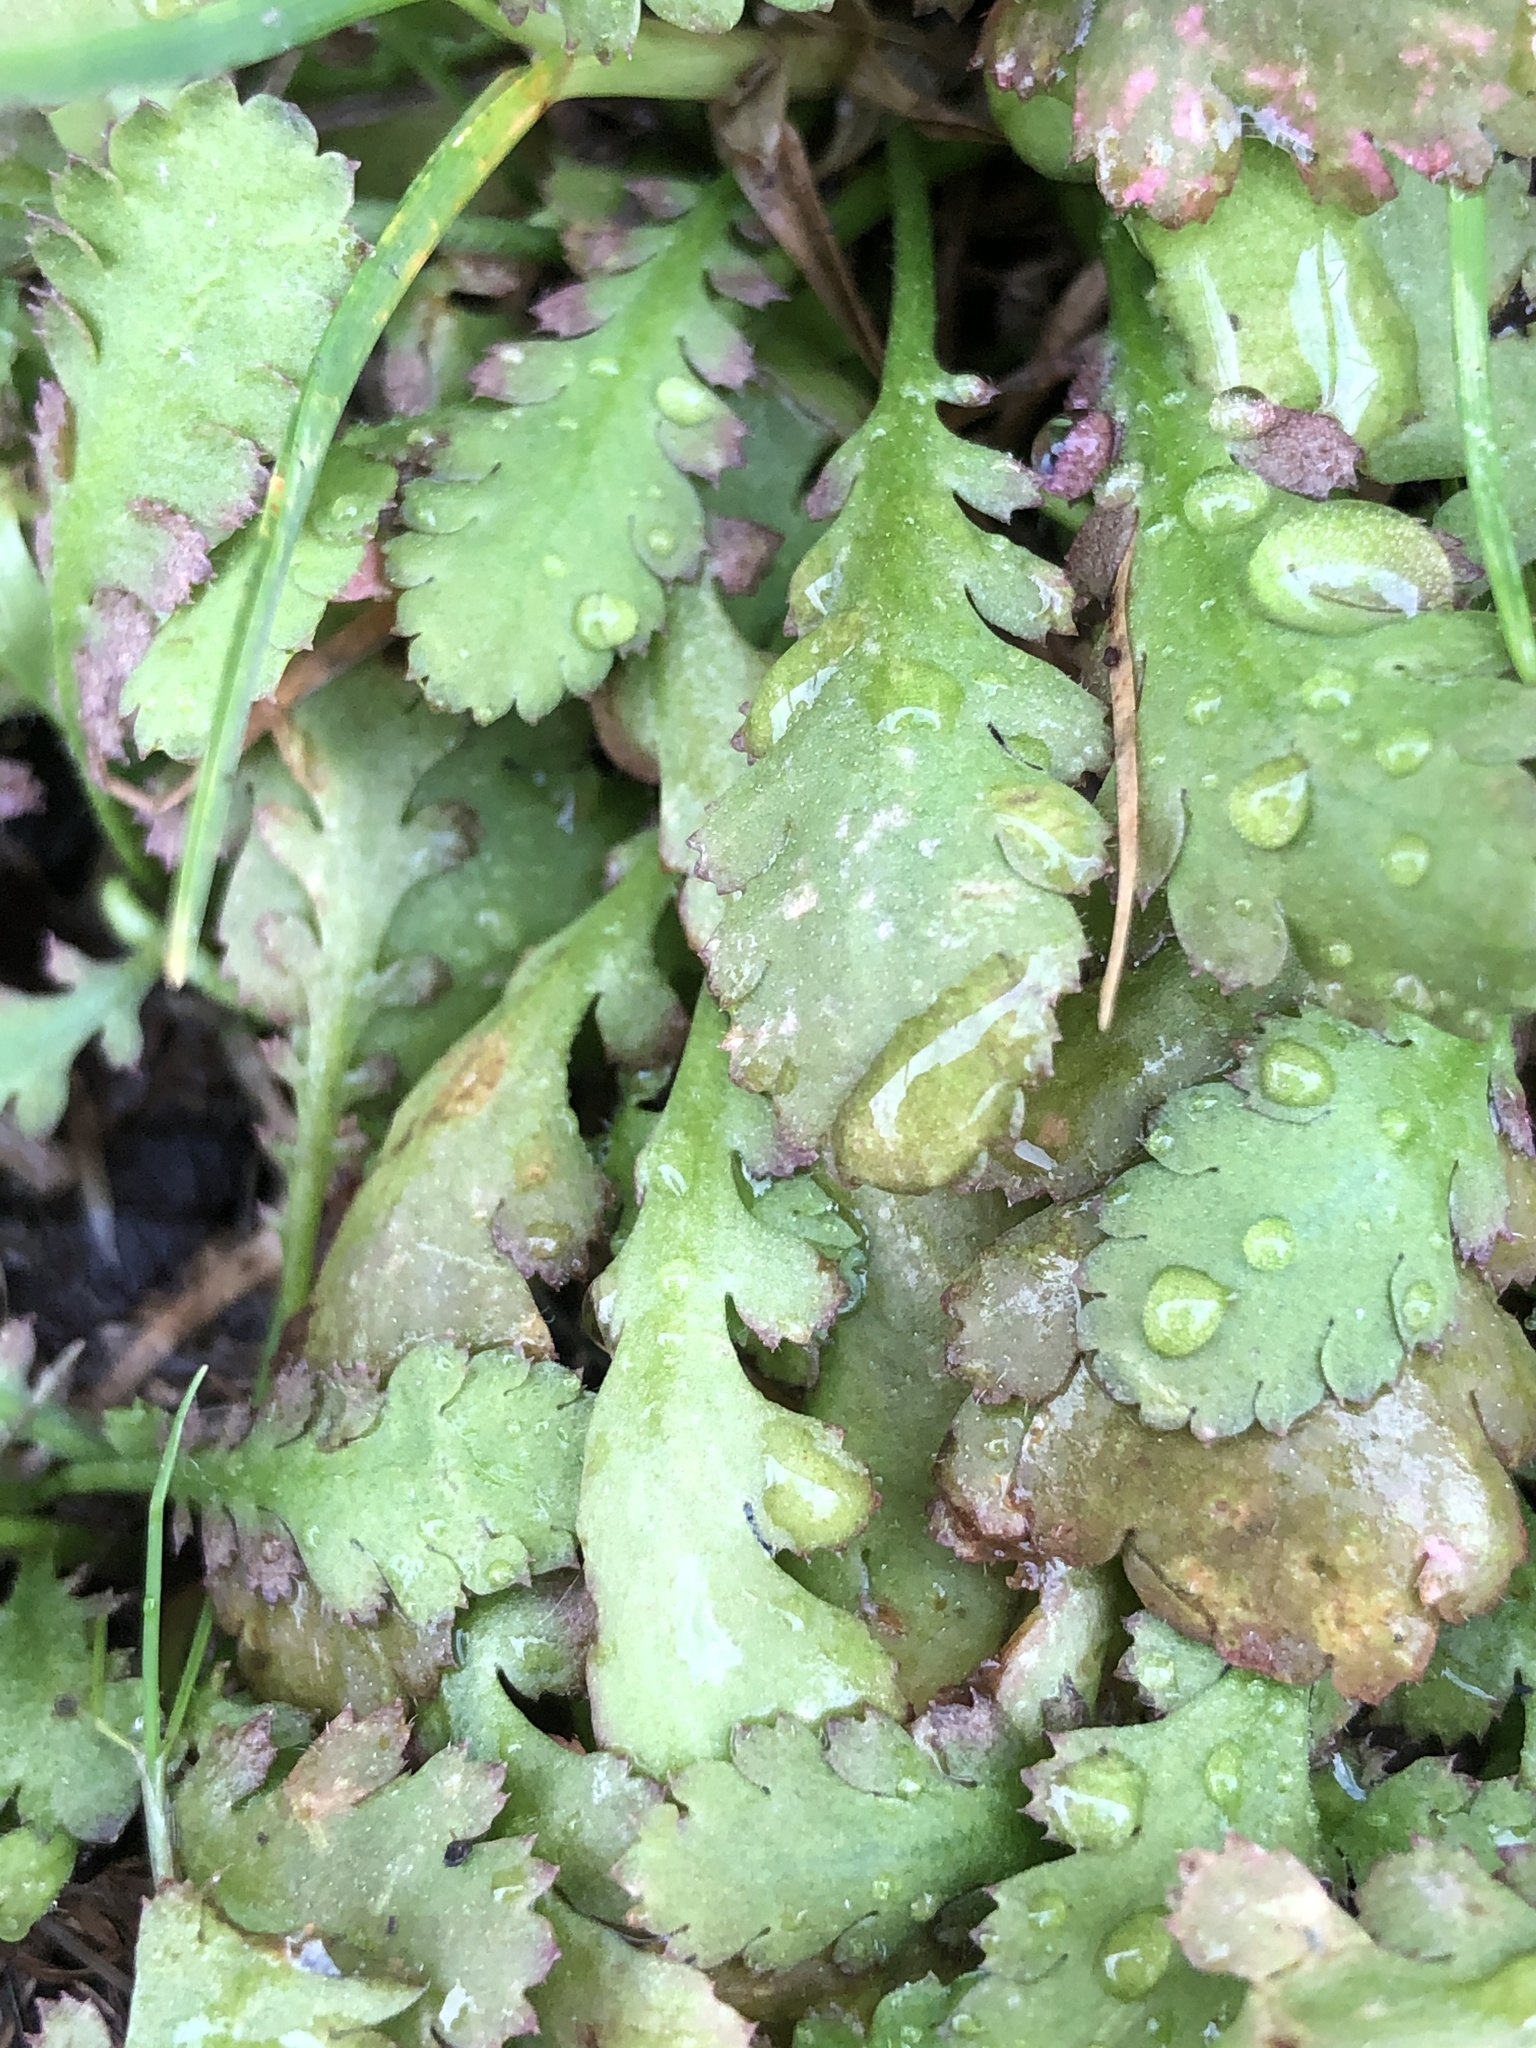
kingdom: Plantae
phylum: Tracheophyta
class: Magnoliopsida
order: Asterales
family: Asteraceae
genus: Leptinella
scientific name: Leptinella dioica
